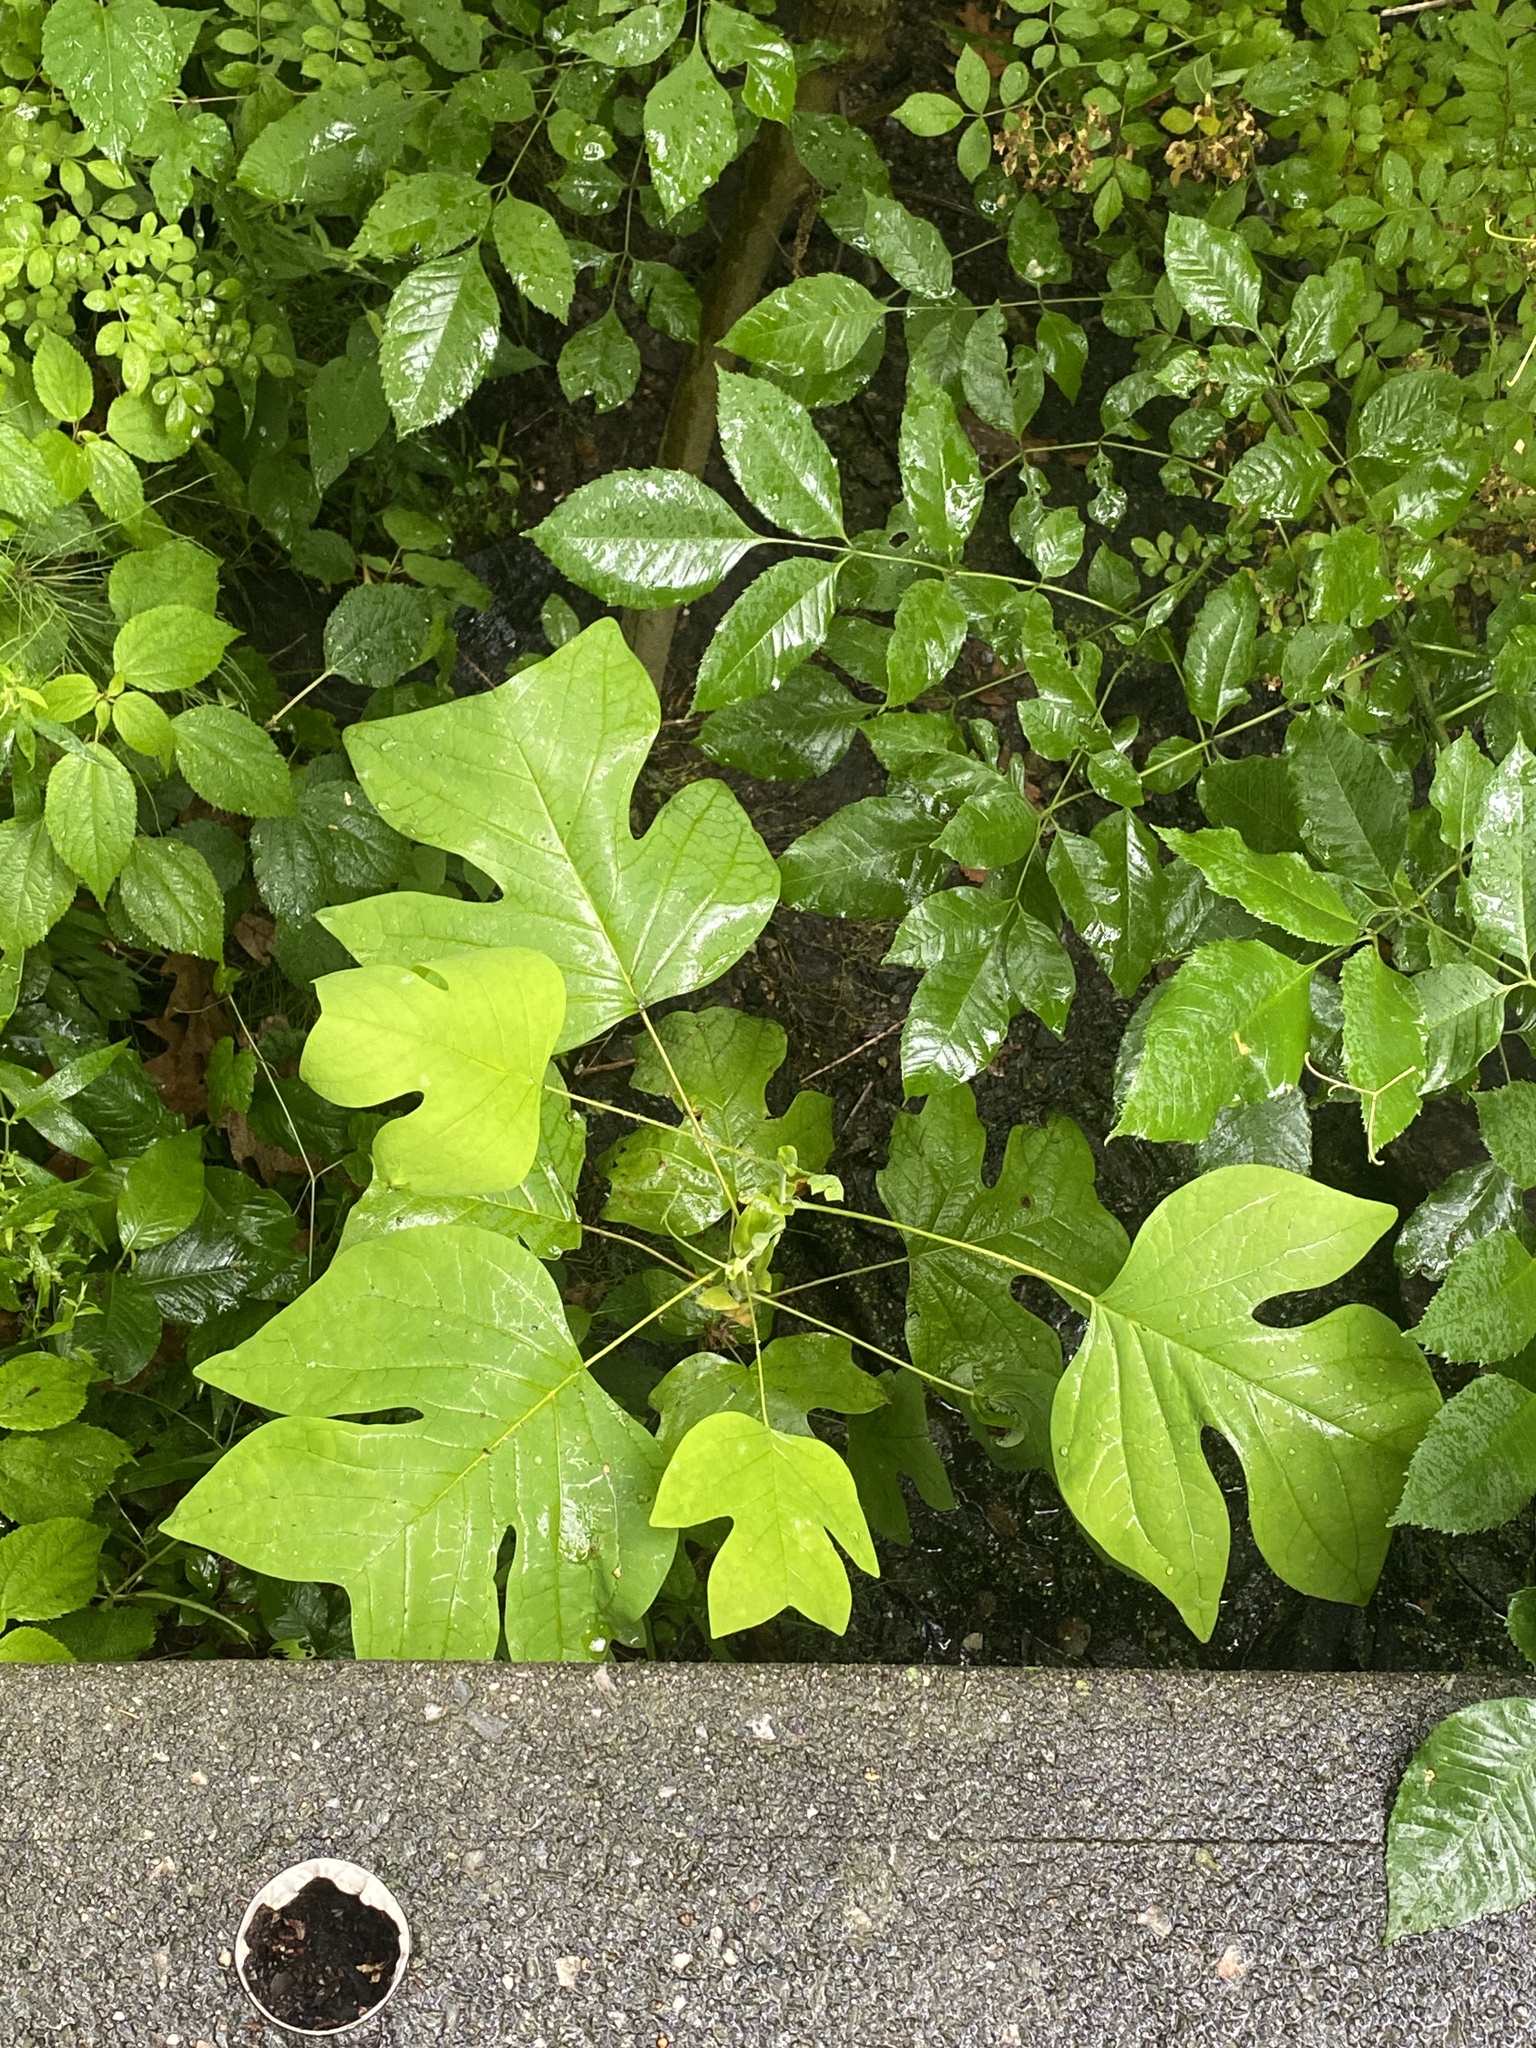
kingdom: Plantae
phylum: Tracheophyta
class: Magnoliopsida
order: Magnoliales
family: Magnoliaceae
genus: Liriodendron
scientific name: Liriodendron tulipifera
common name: Tulip tree
